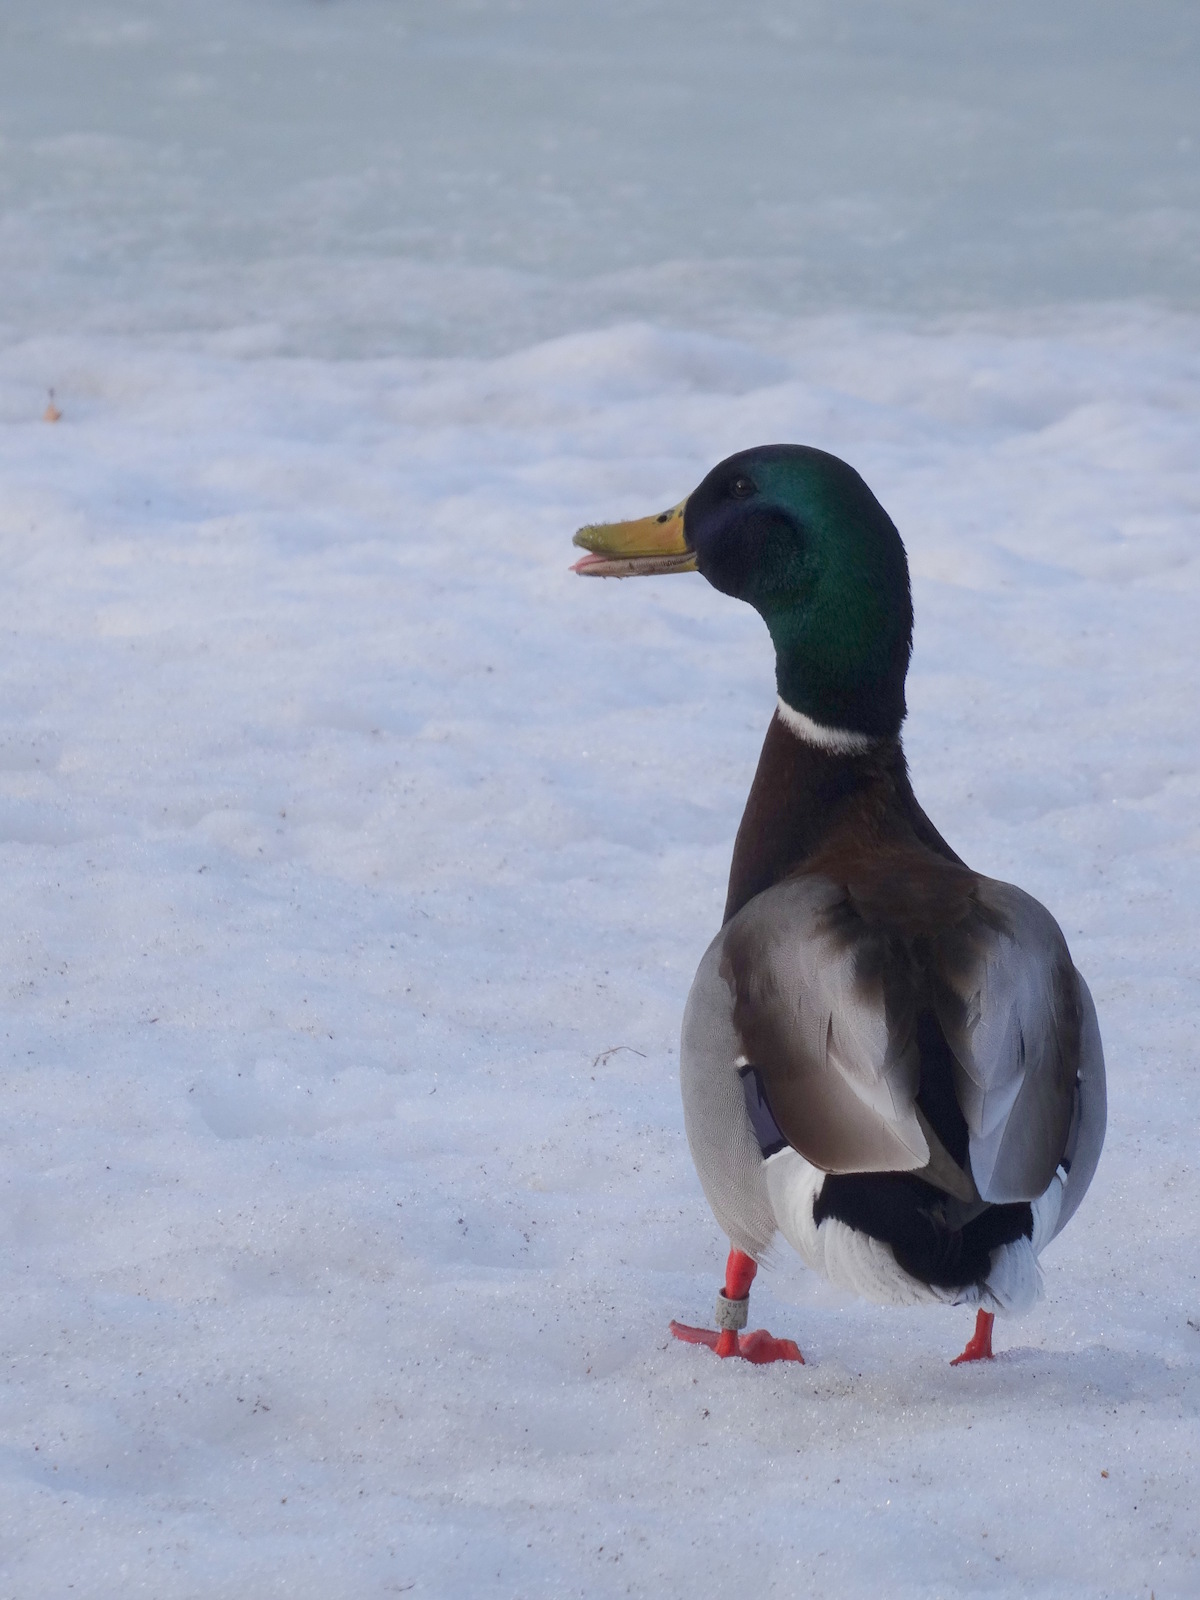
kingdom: Animalia
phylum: Chordata
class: Aves
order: Anseriformes
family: Anatidae
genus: Anas
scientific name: Anas platyrhynchos
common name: Mallard
